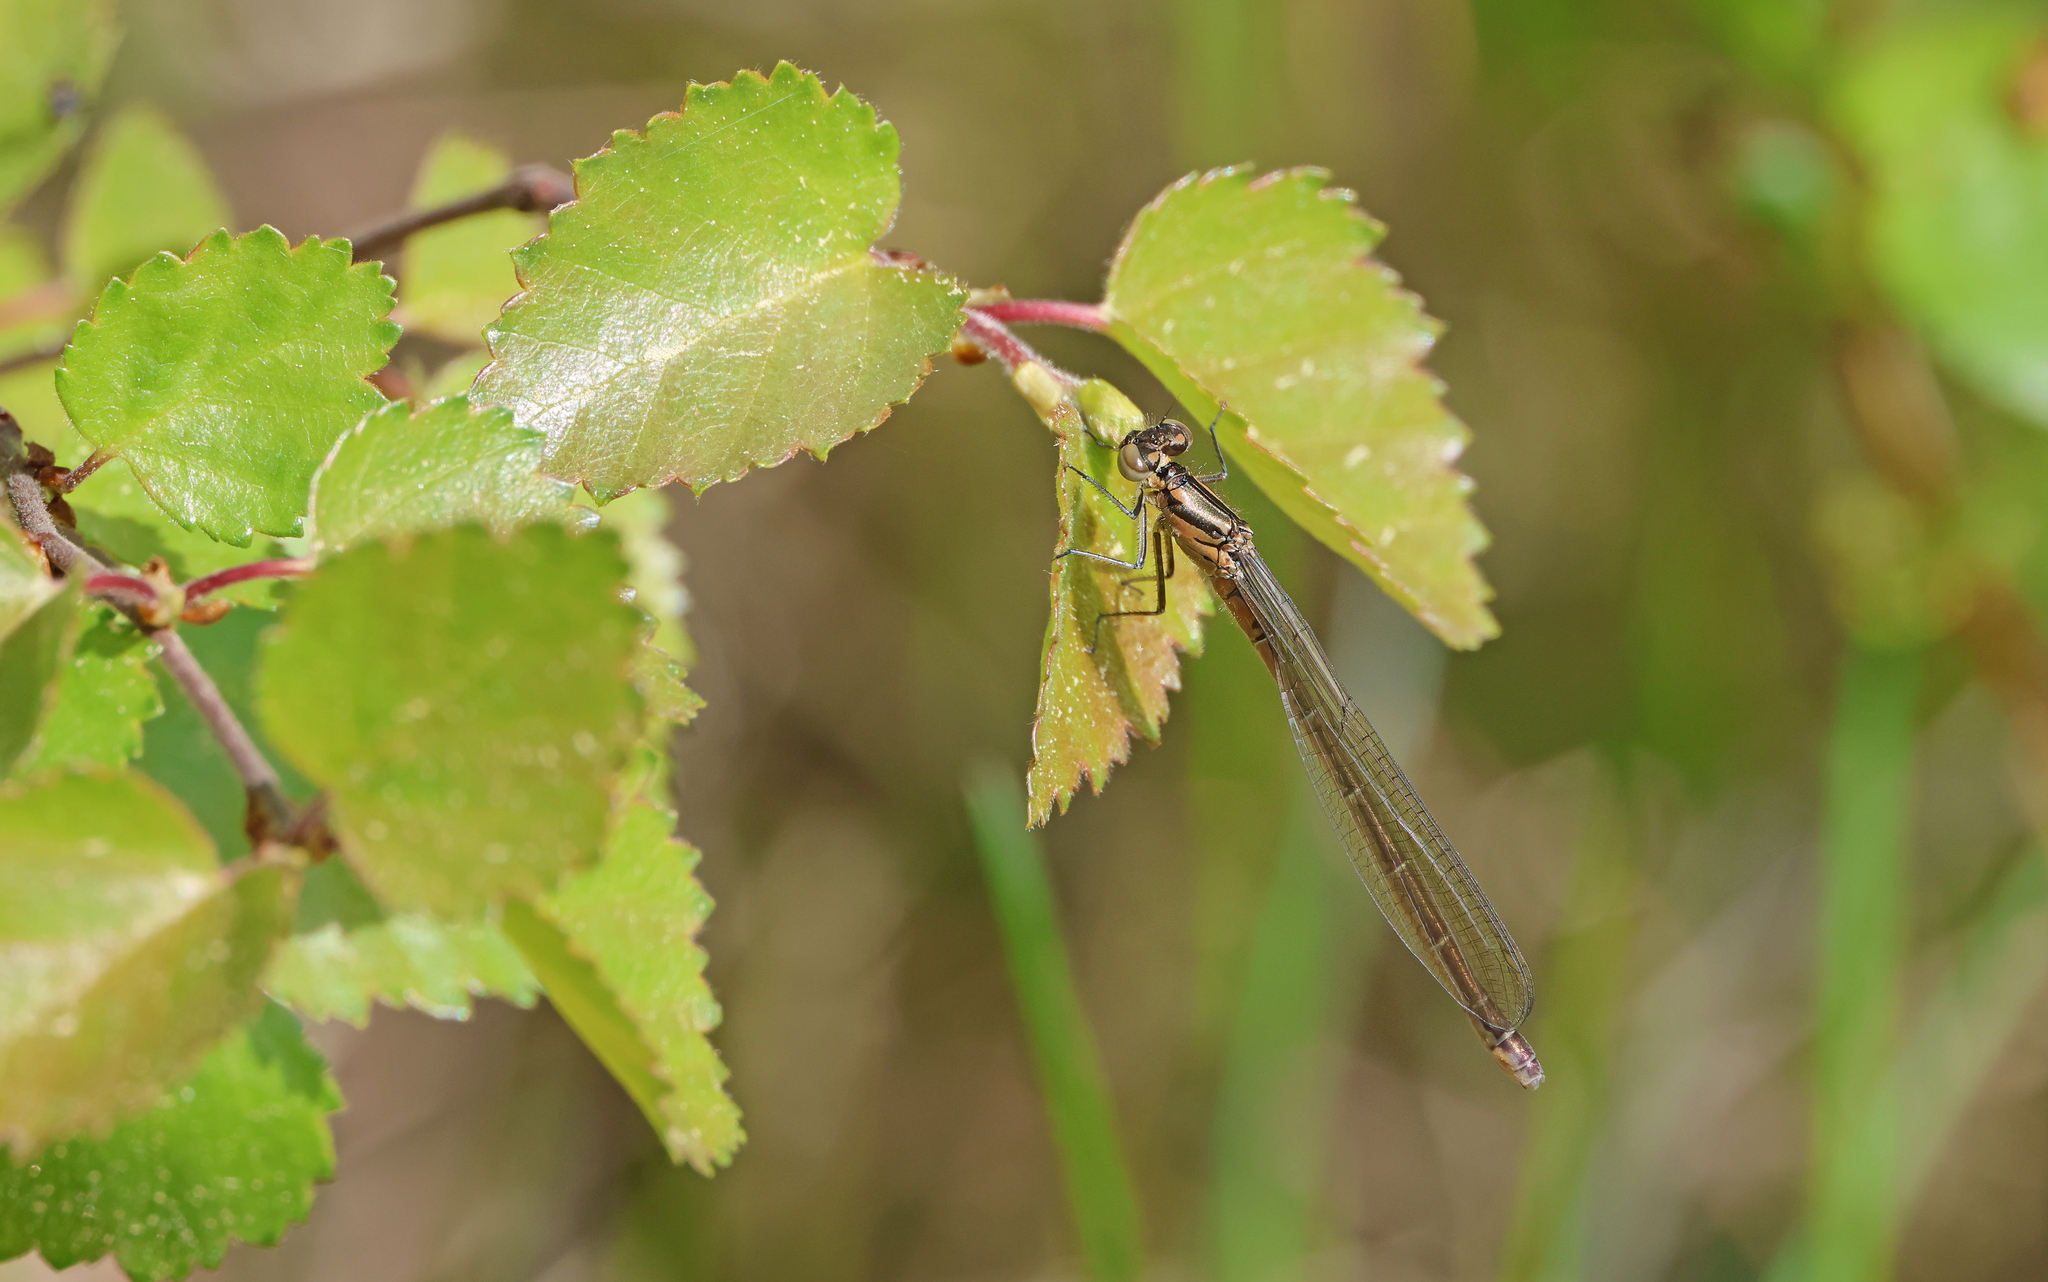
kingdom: Animalia
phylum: Arthropoda
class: Insecta
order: Odonata
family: Coenagrionidae
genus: Coenagrion
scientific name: Coenagrion hastulatum
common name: Spearhead bluet
